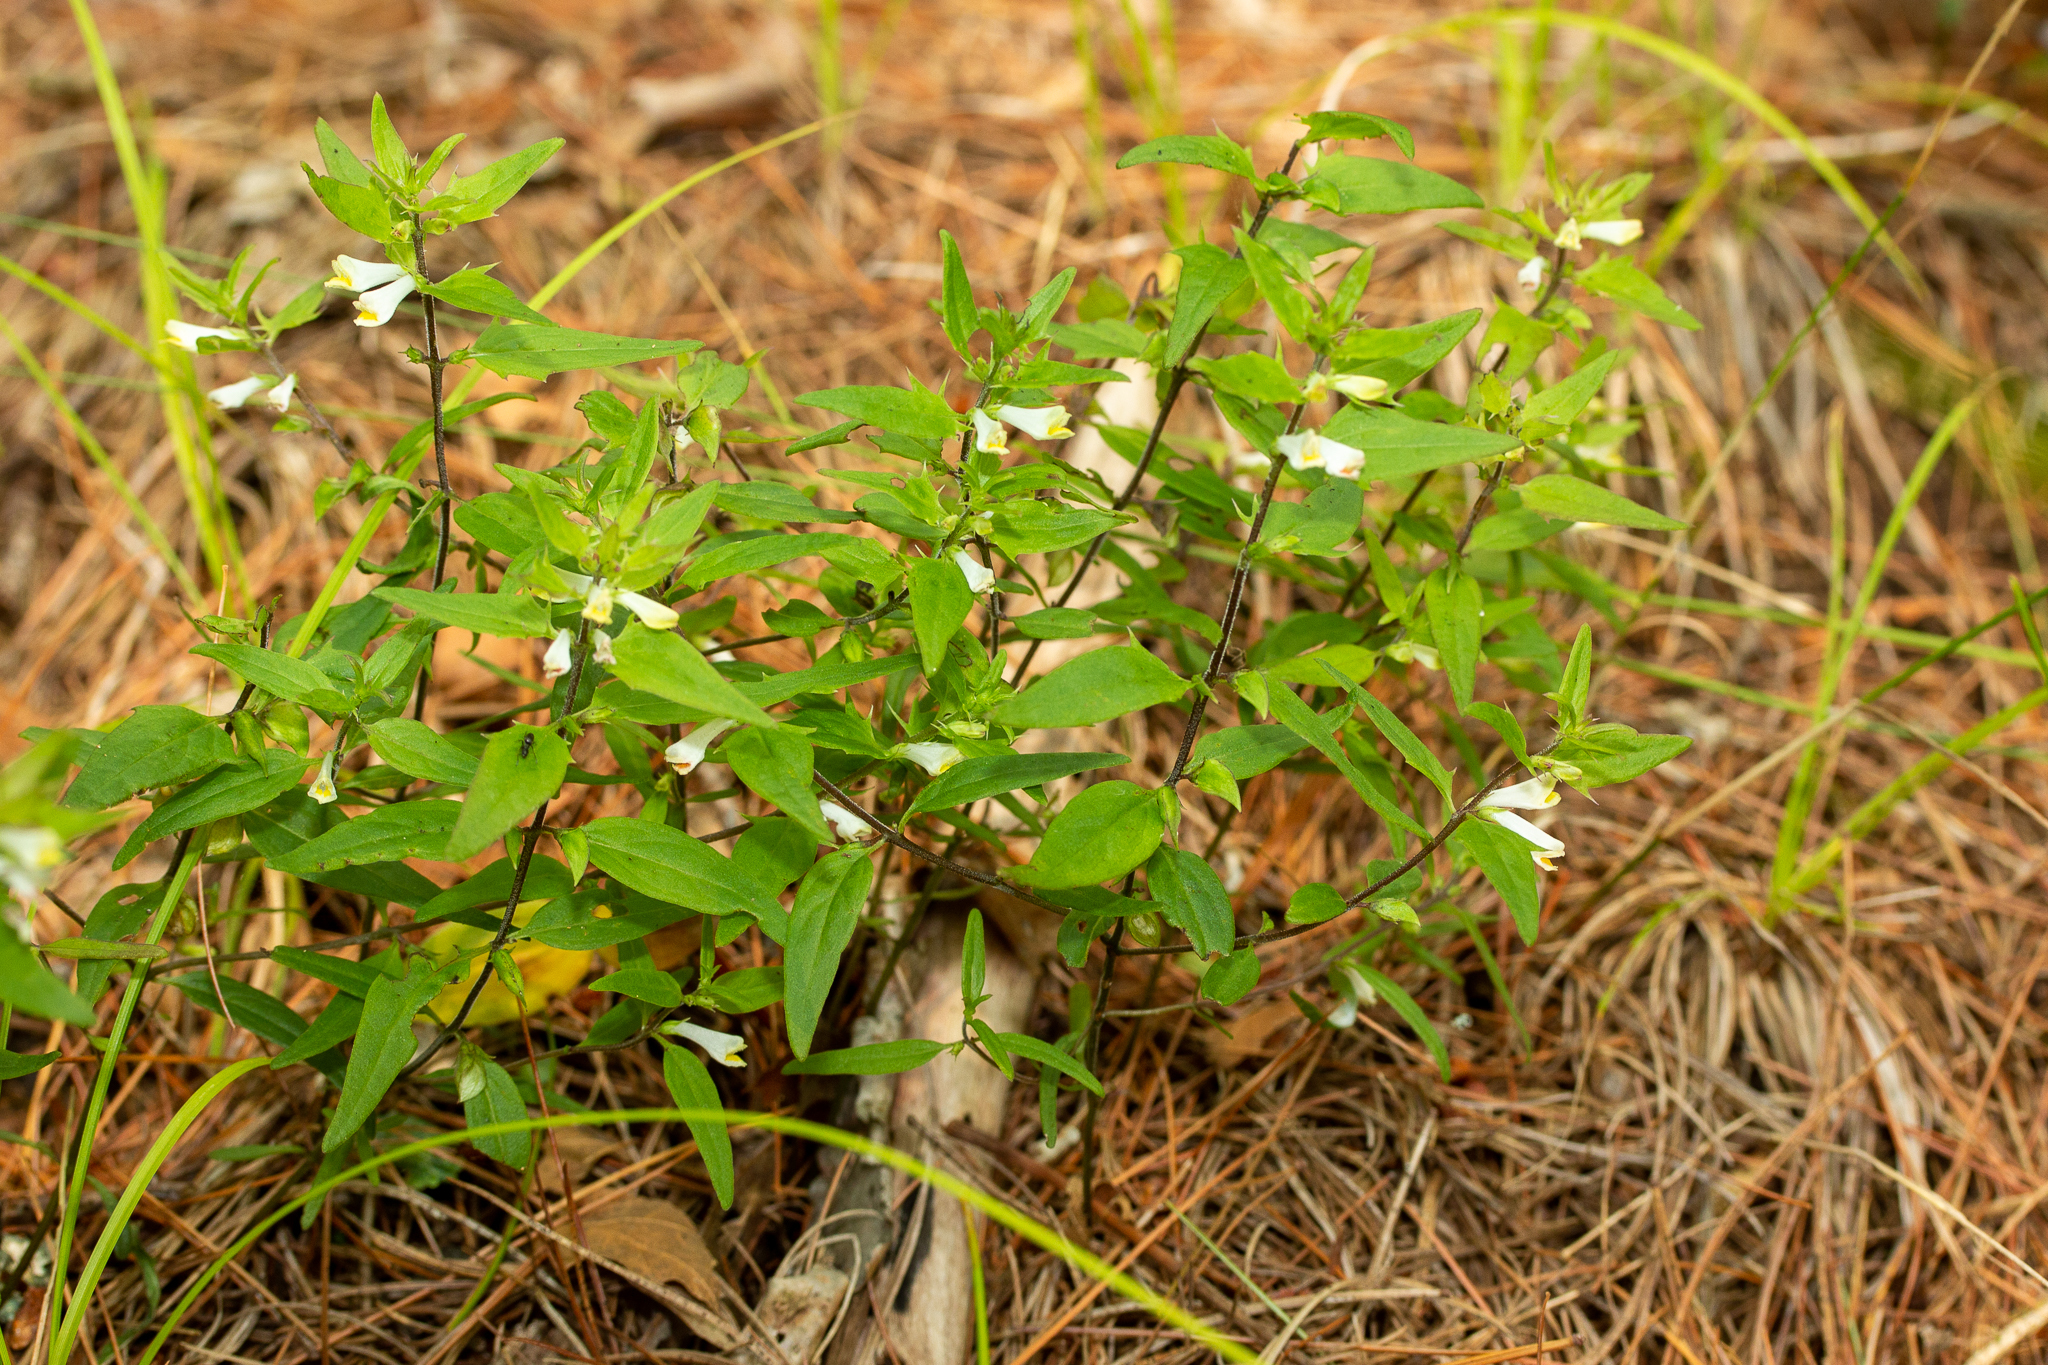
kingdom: Plantae
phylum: Tracheophyta
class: Magnoliopsida
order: Lamiales
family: Orobanchaceae
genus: Melampyrum
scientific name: Melampyrum lineare
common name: American cow-wheat
